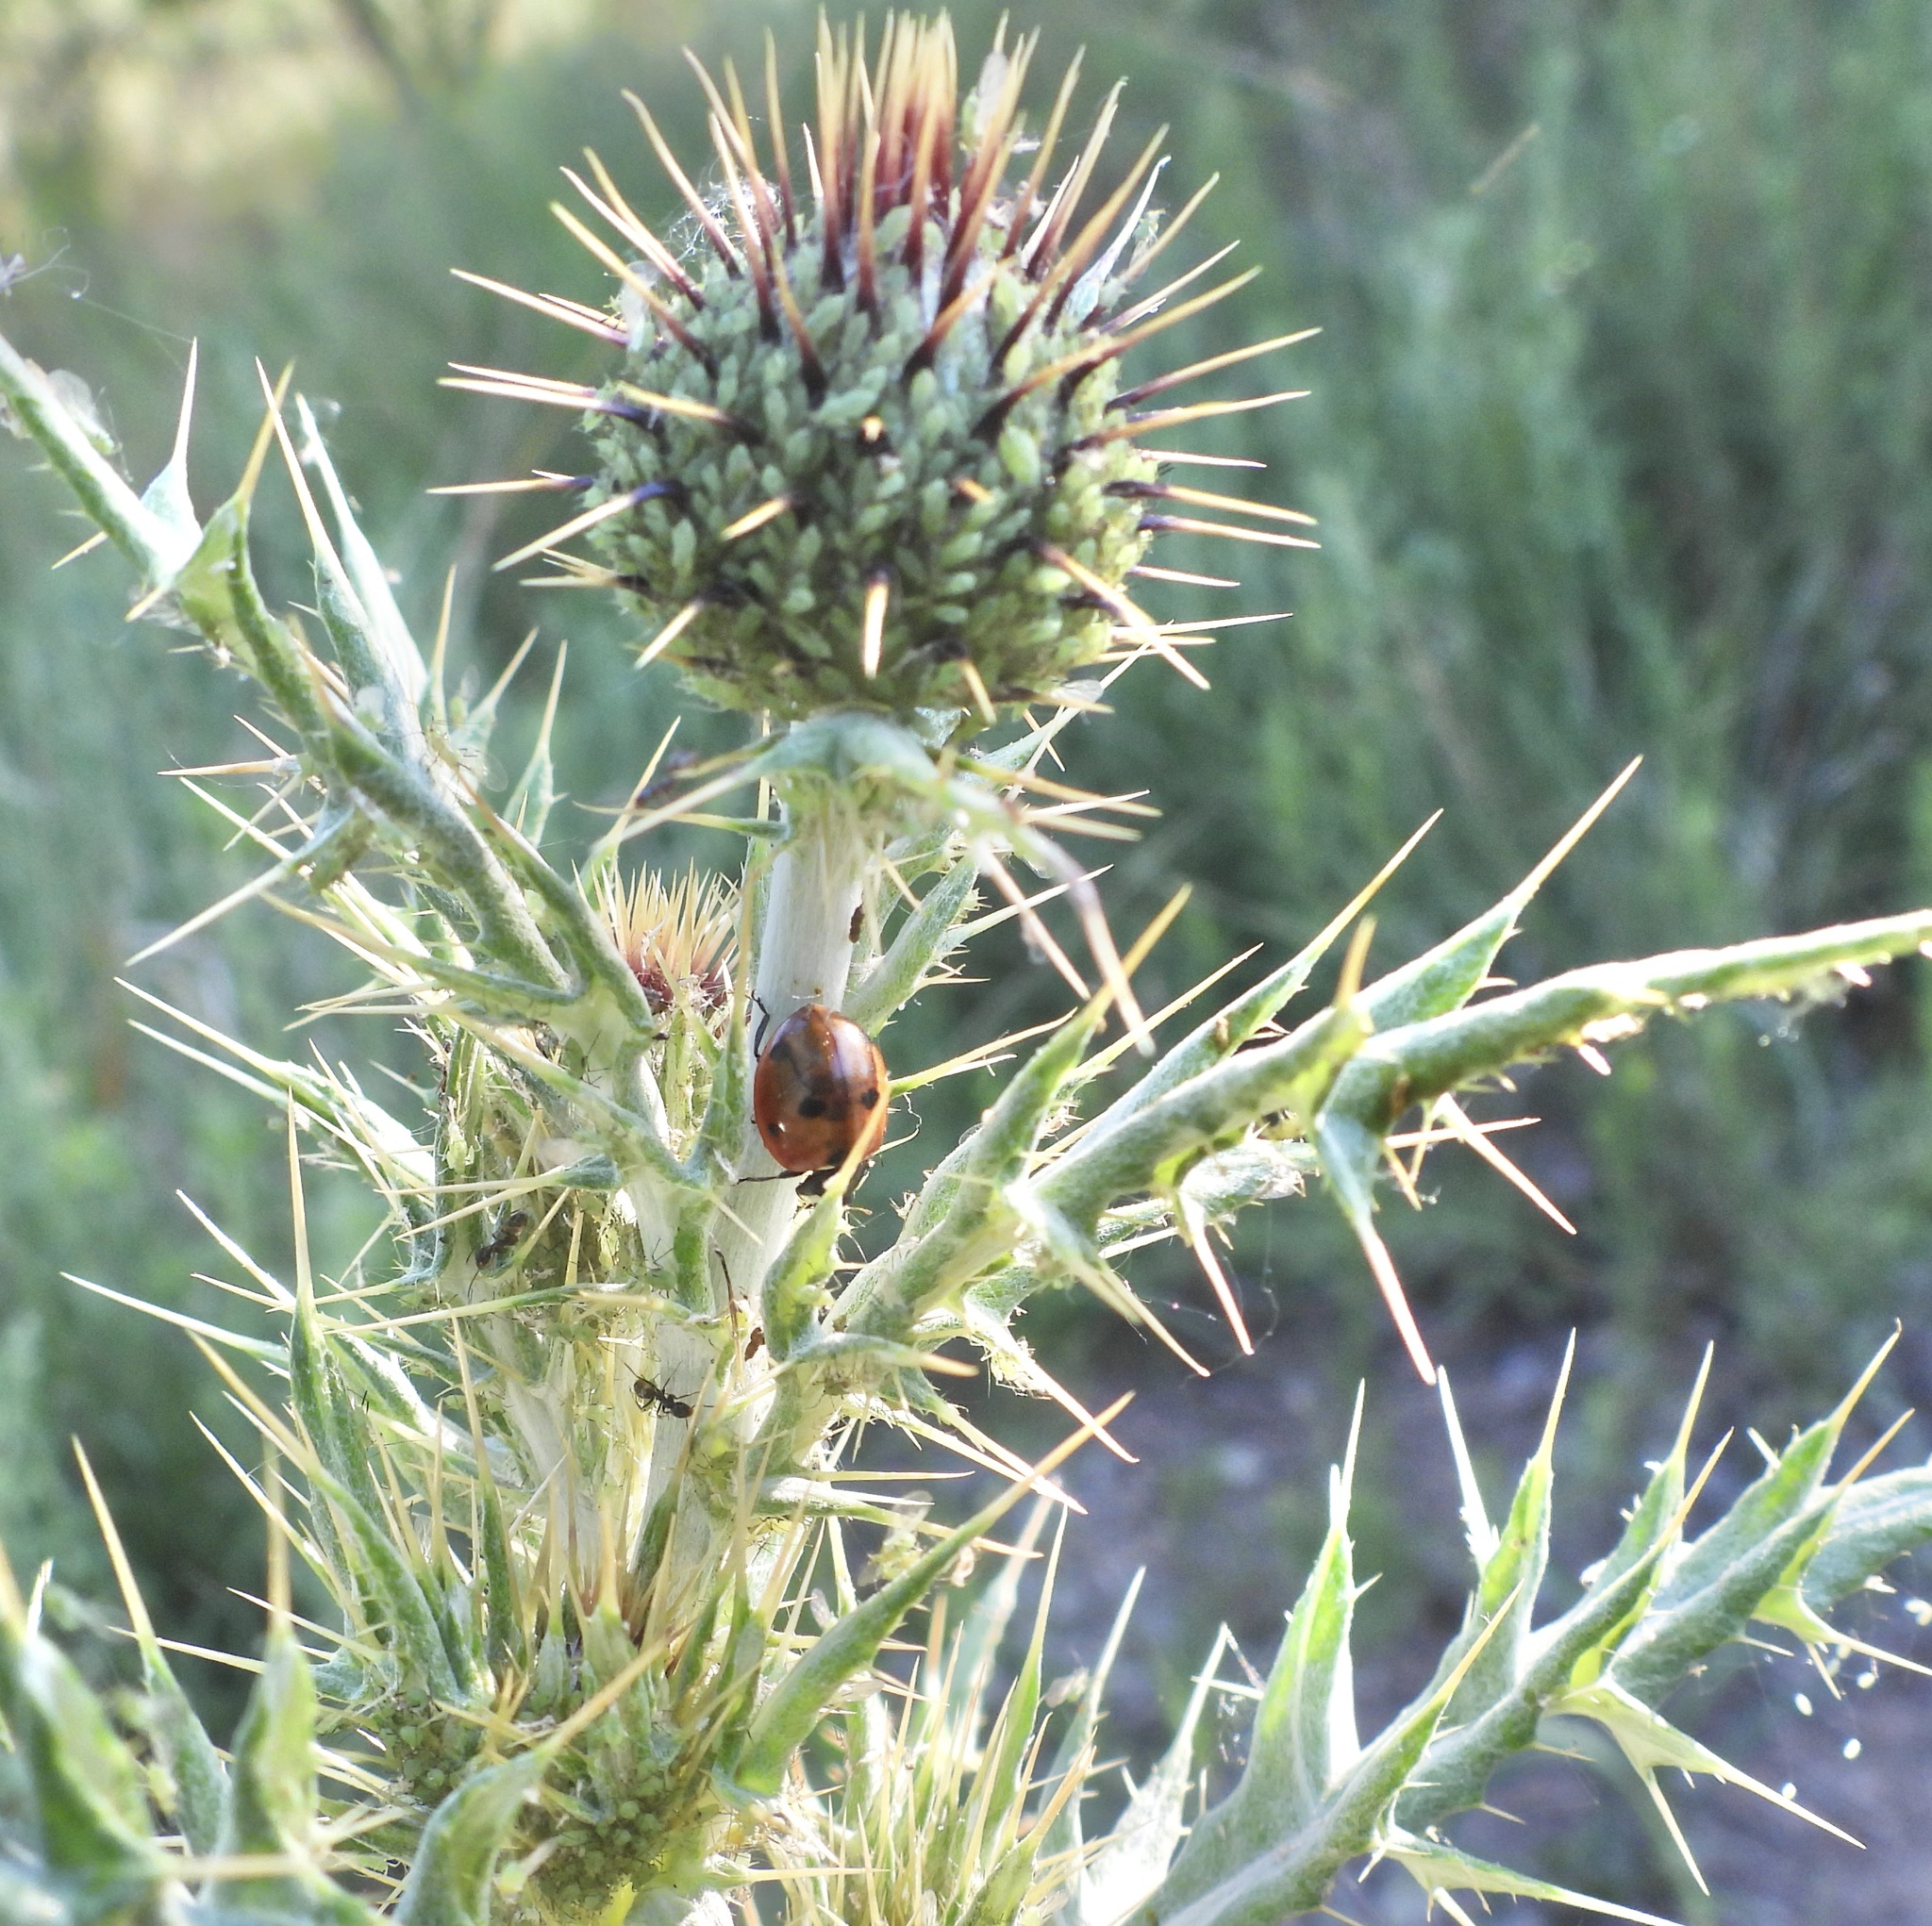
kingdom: Animalia
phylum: Arthropoda
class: Insecta
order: Coleoptera
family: Coccinellidae
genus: Coccinella
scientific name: Coccinella septempunctata
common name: Sevenspotted lady beetle
